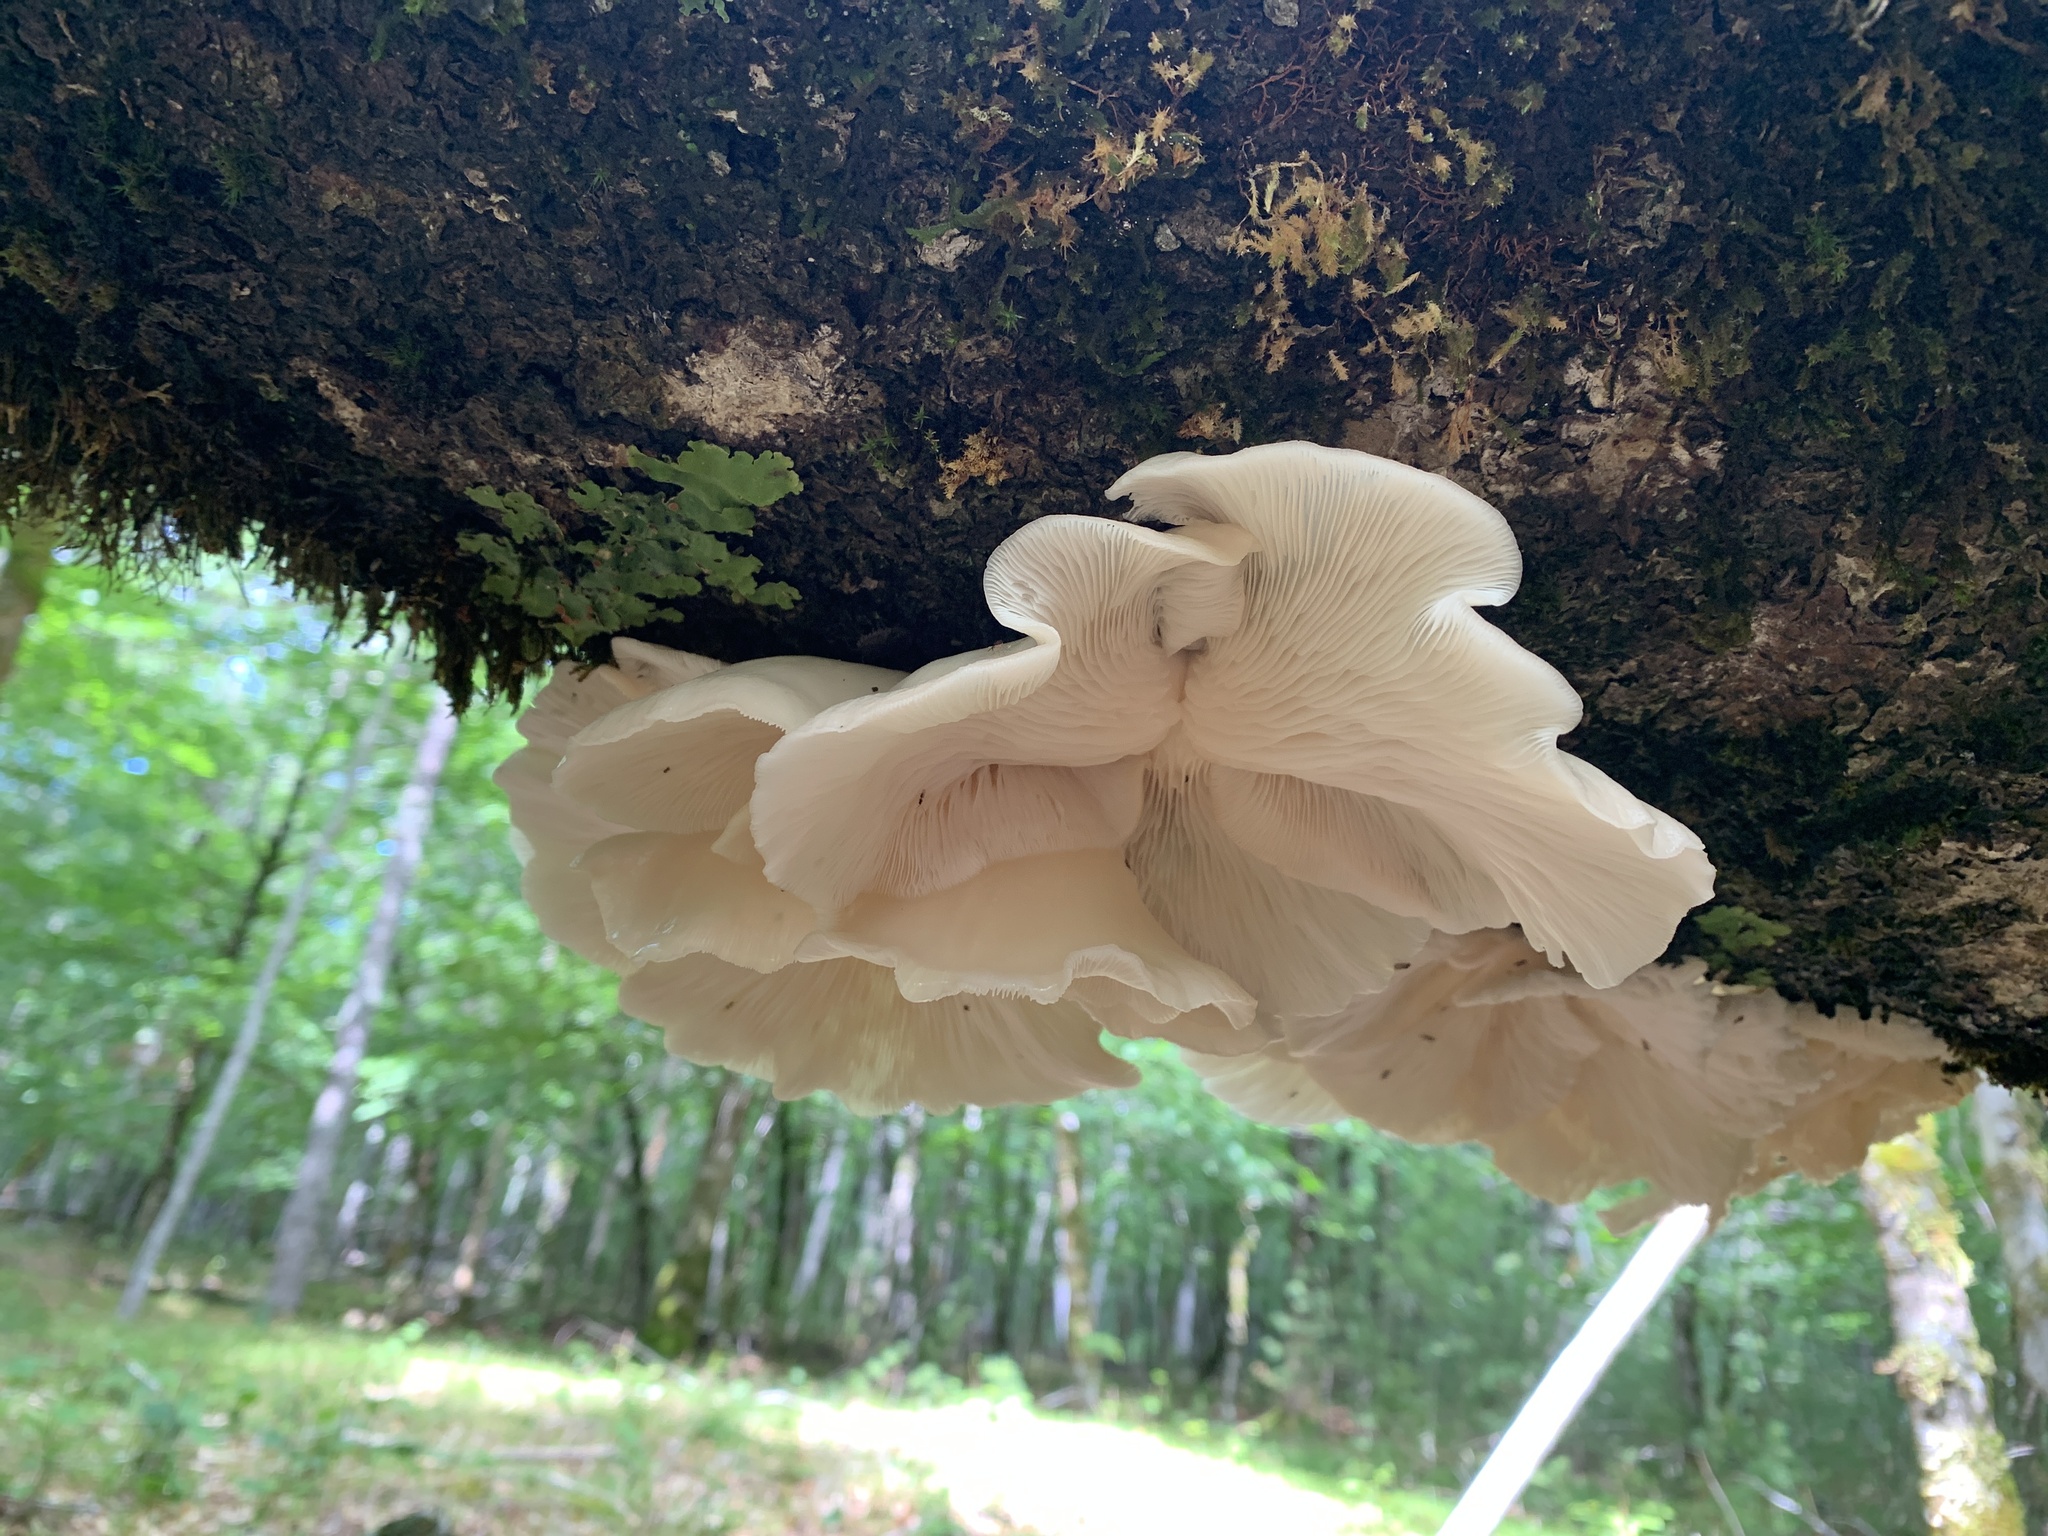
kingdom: Fungi
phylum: Basidiomycota
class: Agaricomycetes
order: Agaricales
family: Marasmiaceae
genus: Pleurocybella
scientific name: Pleurocybella porrigens
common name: Angel's wings
